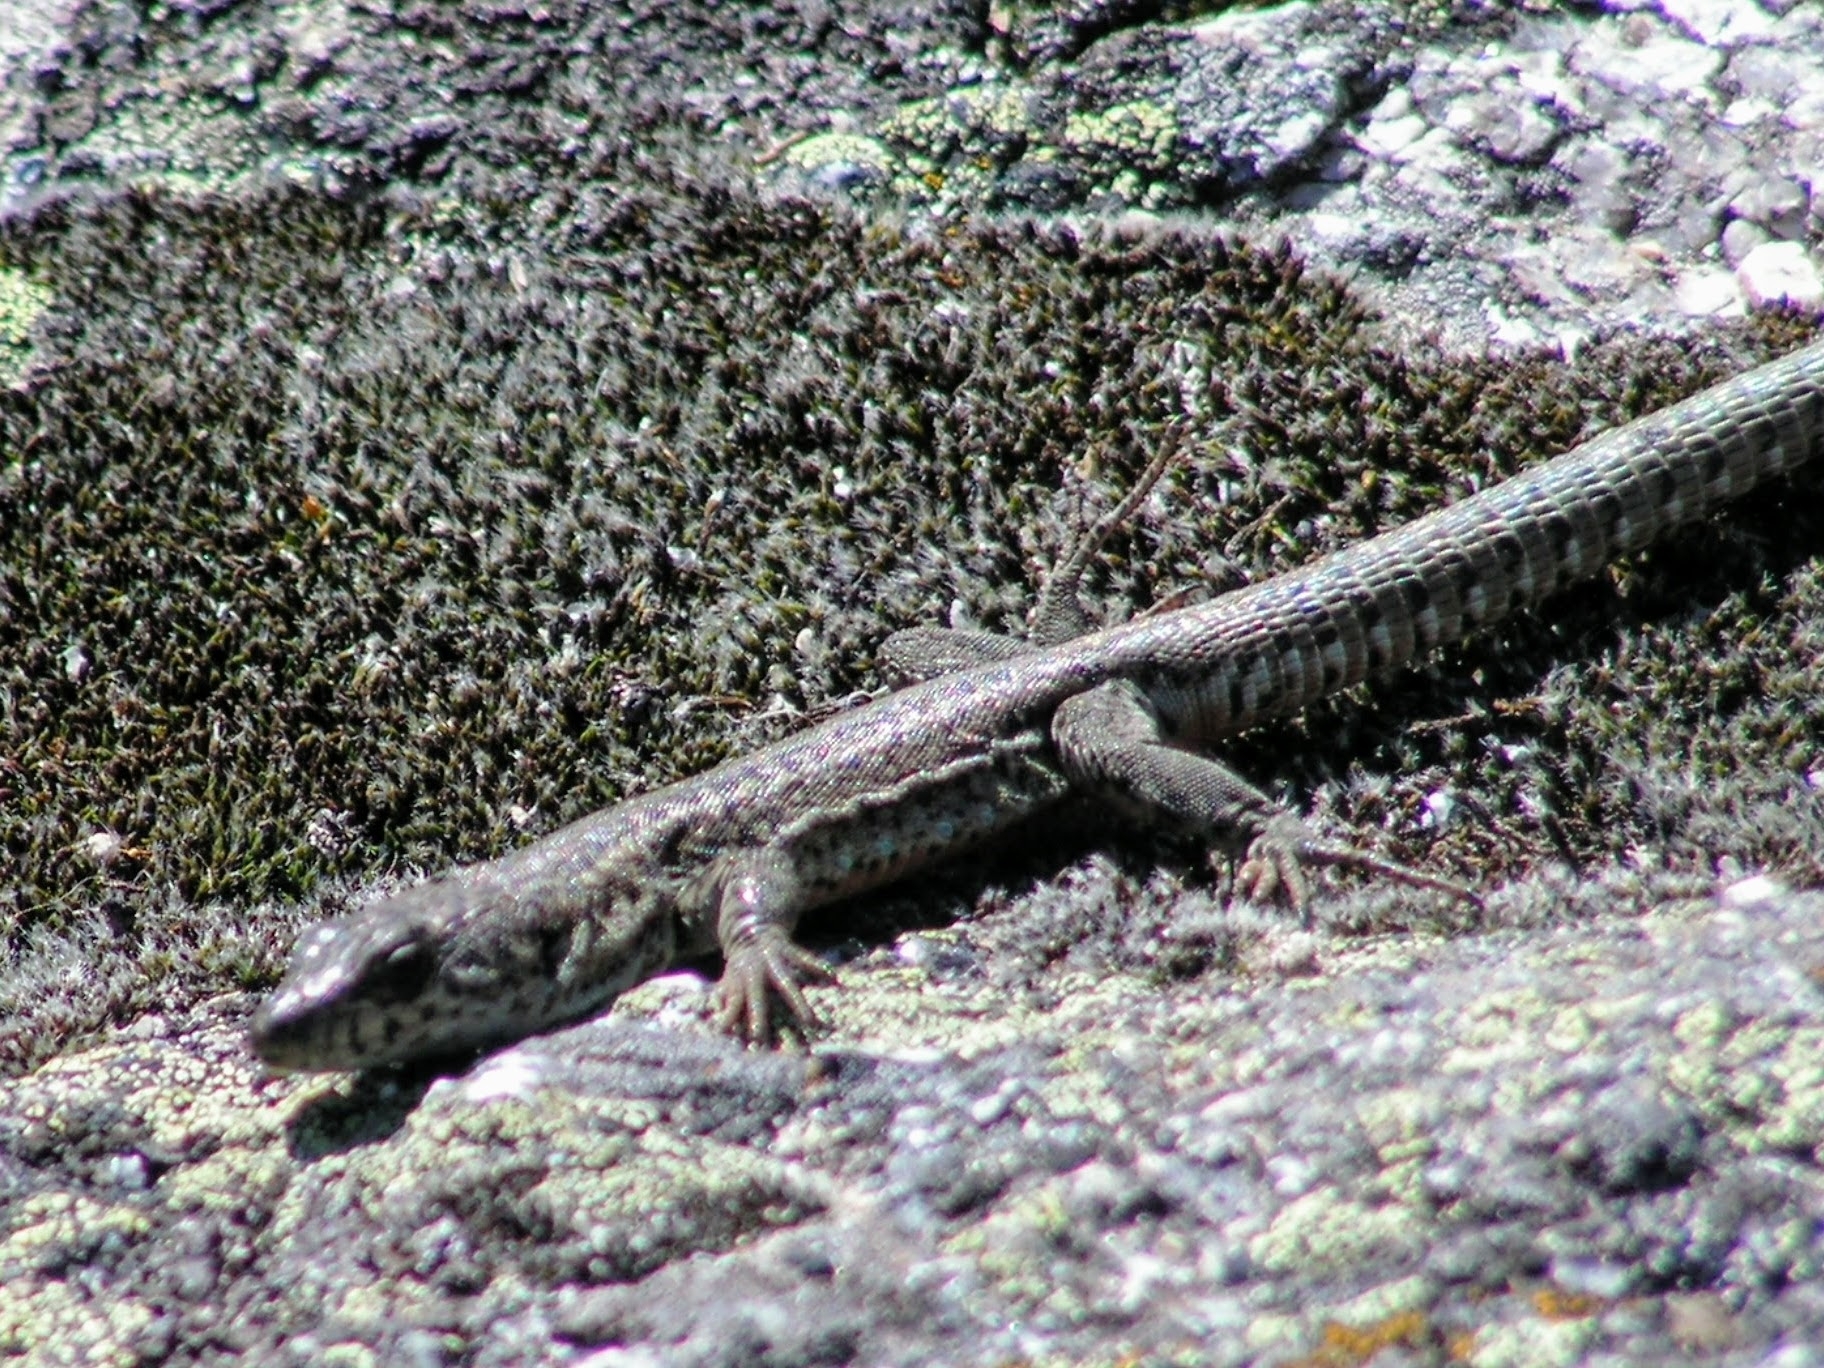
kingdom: Animalia
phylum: Chordata
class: Squamata
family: Lacertidae
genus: Podarcis
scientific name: Podarcis guadarramae
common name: Guadarrama wall lizard
